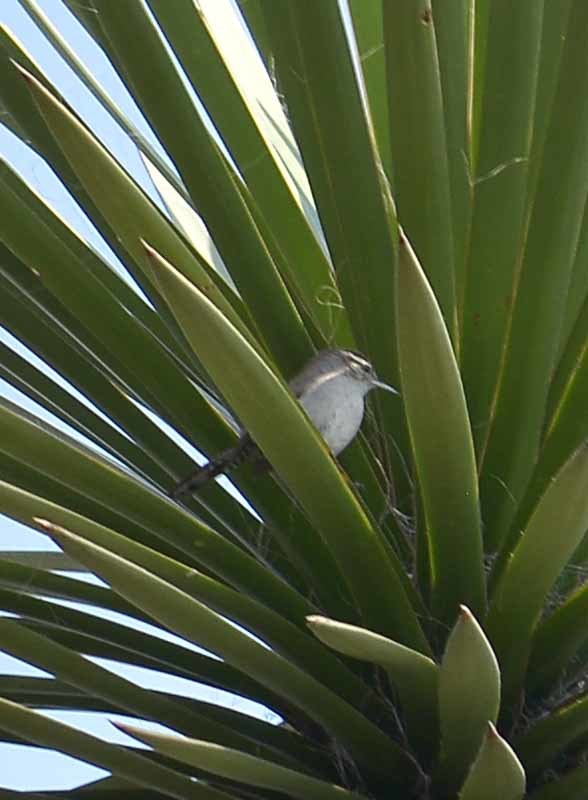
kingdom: Animalia
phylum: Chordata
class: Aves
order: Passeriformes
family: Troglodytidae
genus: Thryomanes
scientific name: Thryomanes bewickii
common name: Bewick's wren
